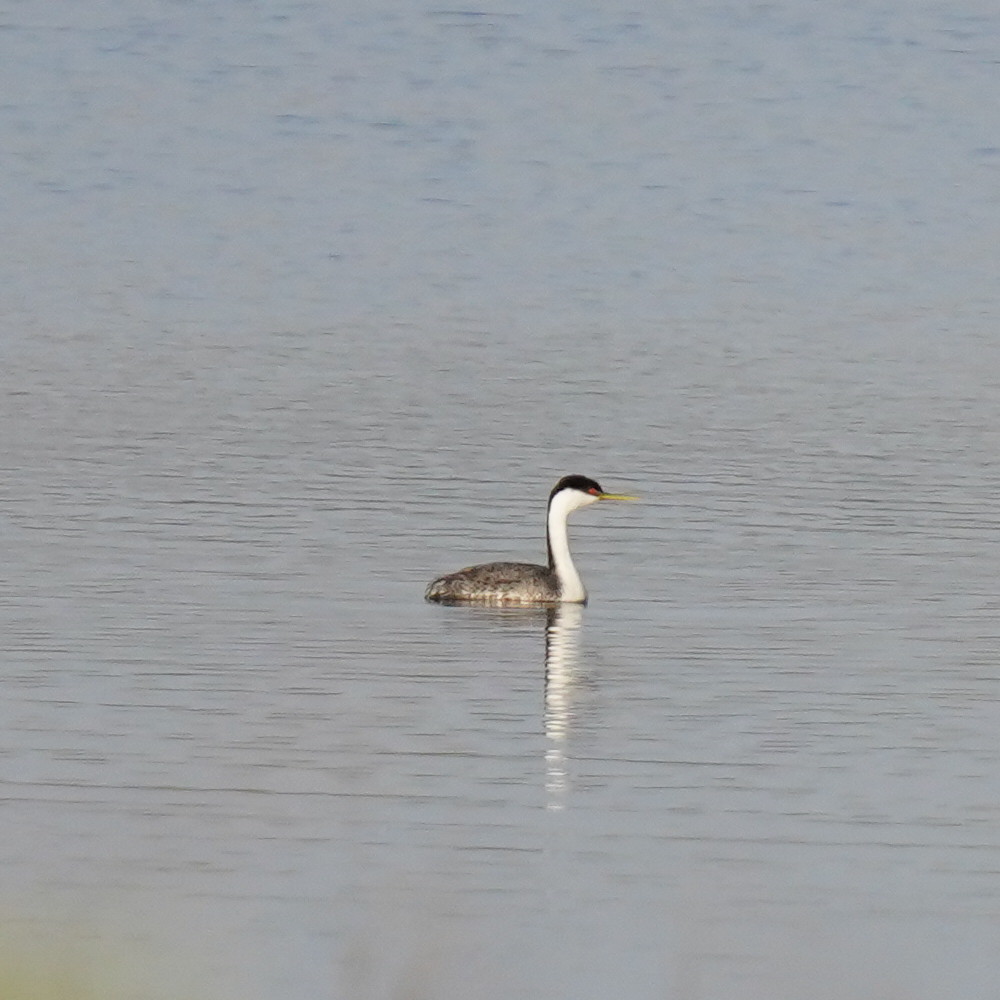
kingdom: Animalia
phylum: Chordata
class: Aves
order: Podicipediformes
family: Podicipedidae
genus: Aechmophorus
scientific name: Aechmophorus occidentalis
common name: Western grebe
